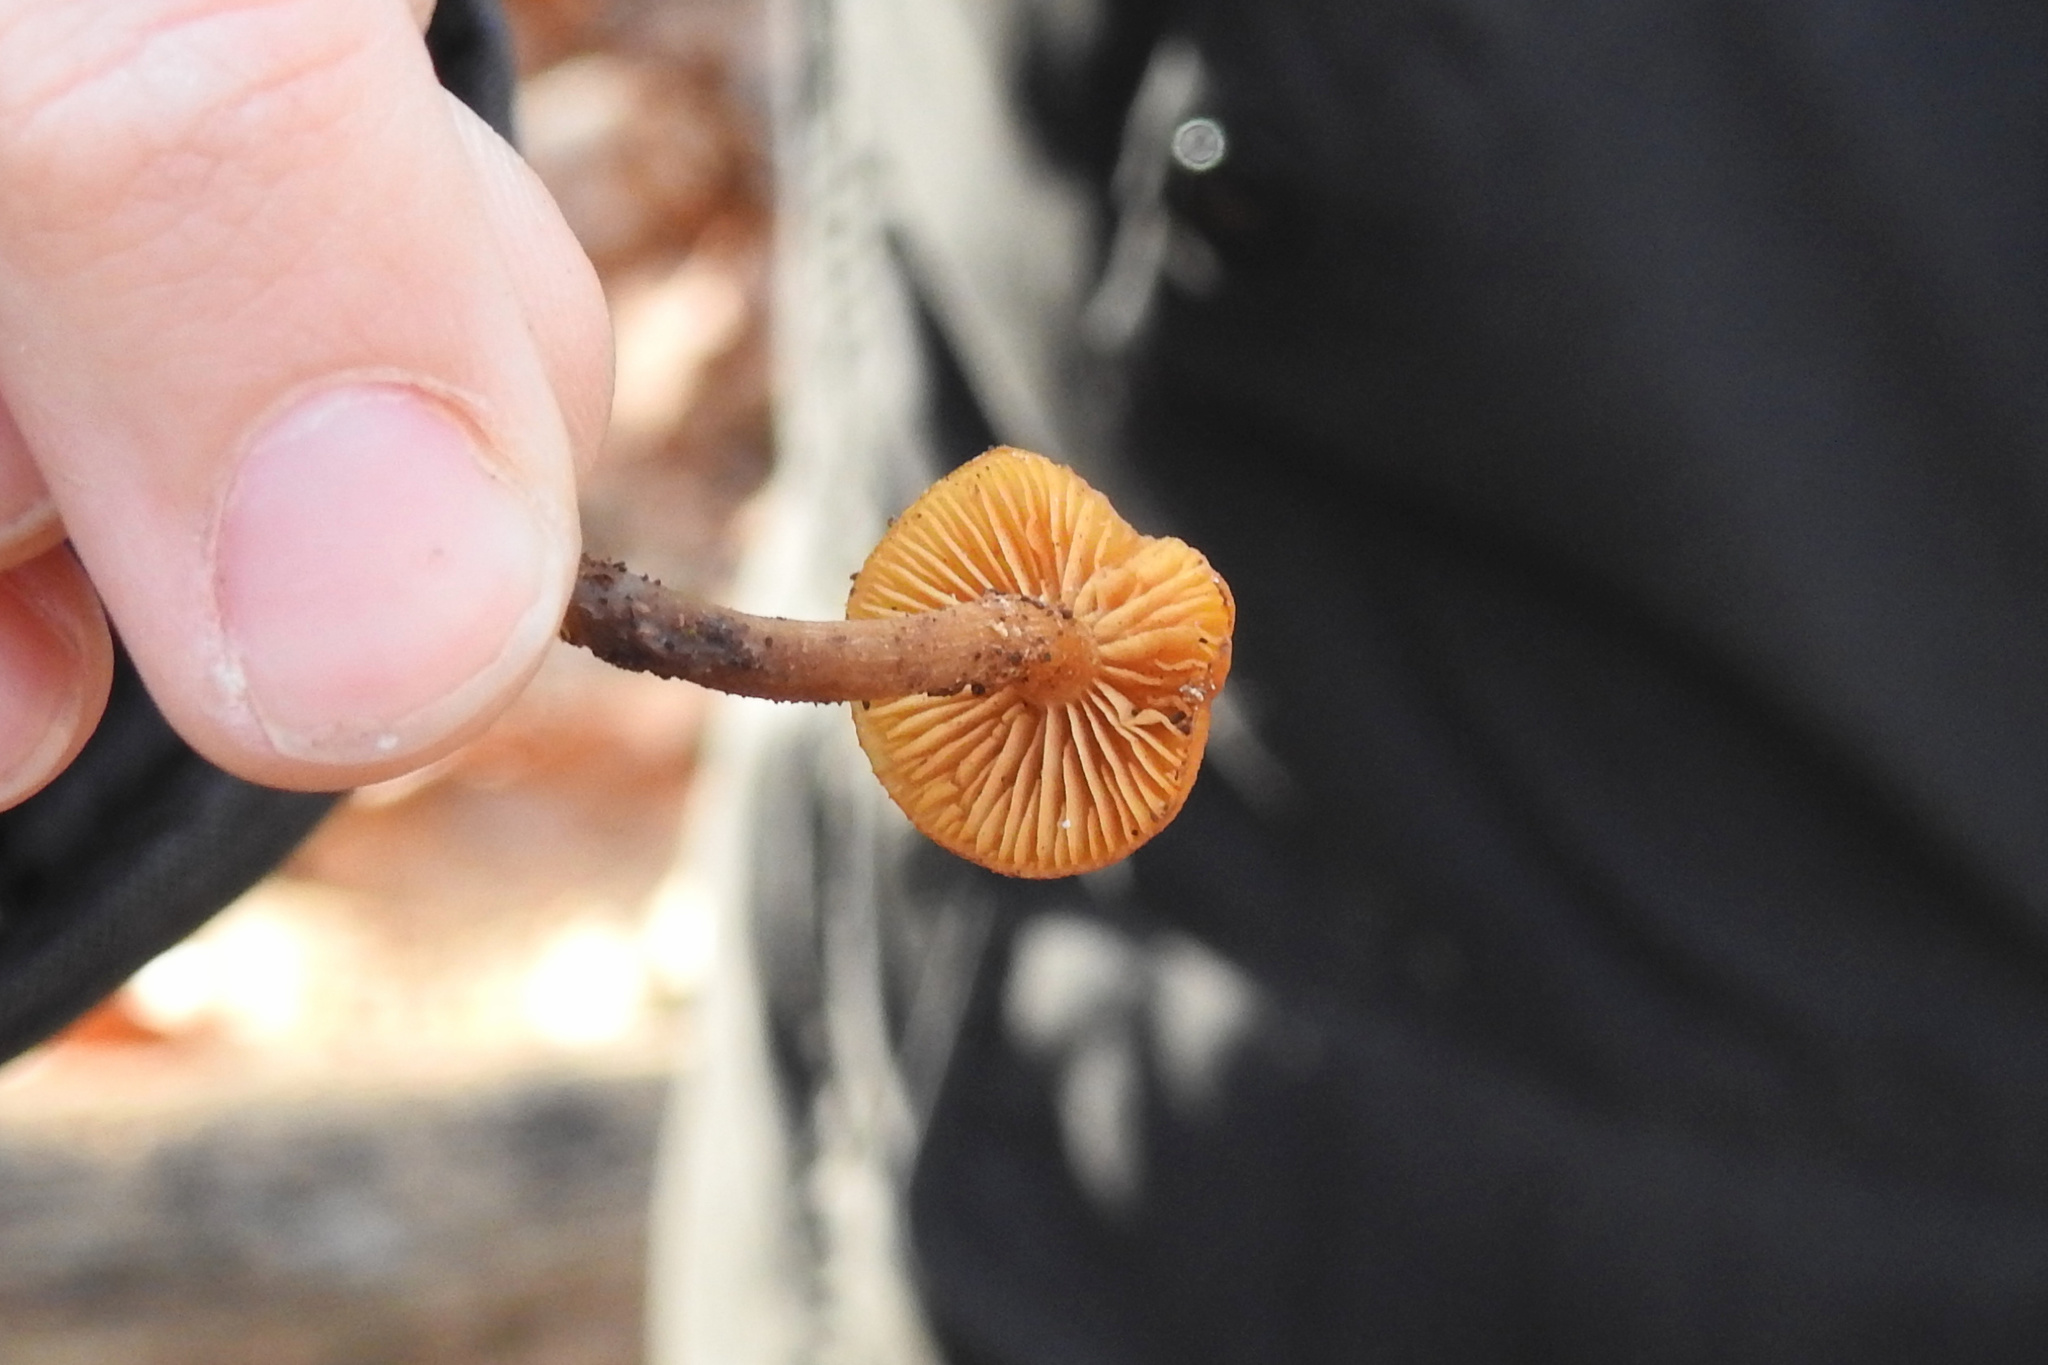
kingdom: Fungi
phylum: Basidiomycota
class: Agaricomycetes
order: Agaricales
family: Hymenogastraceae
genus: Galerina
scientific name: Galerina marginata
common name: Funeral bell
